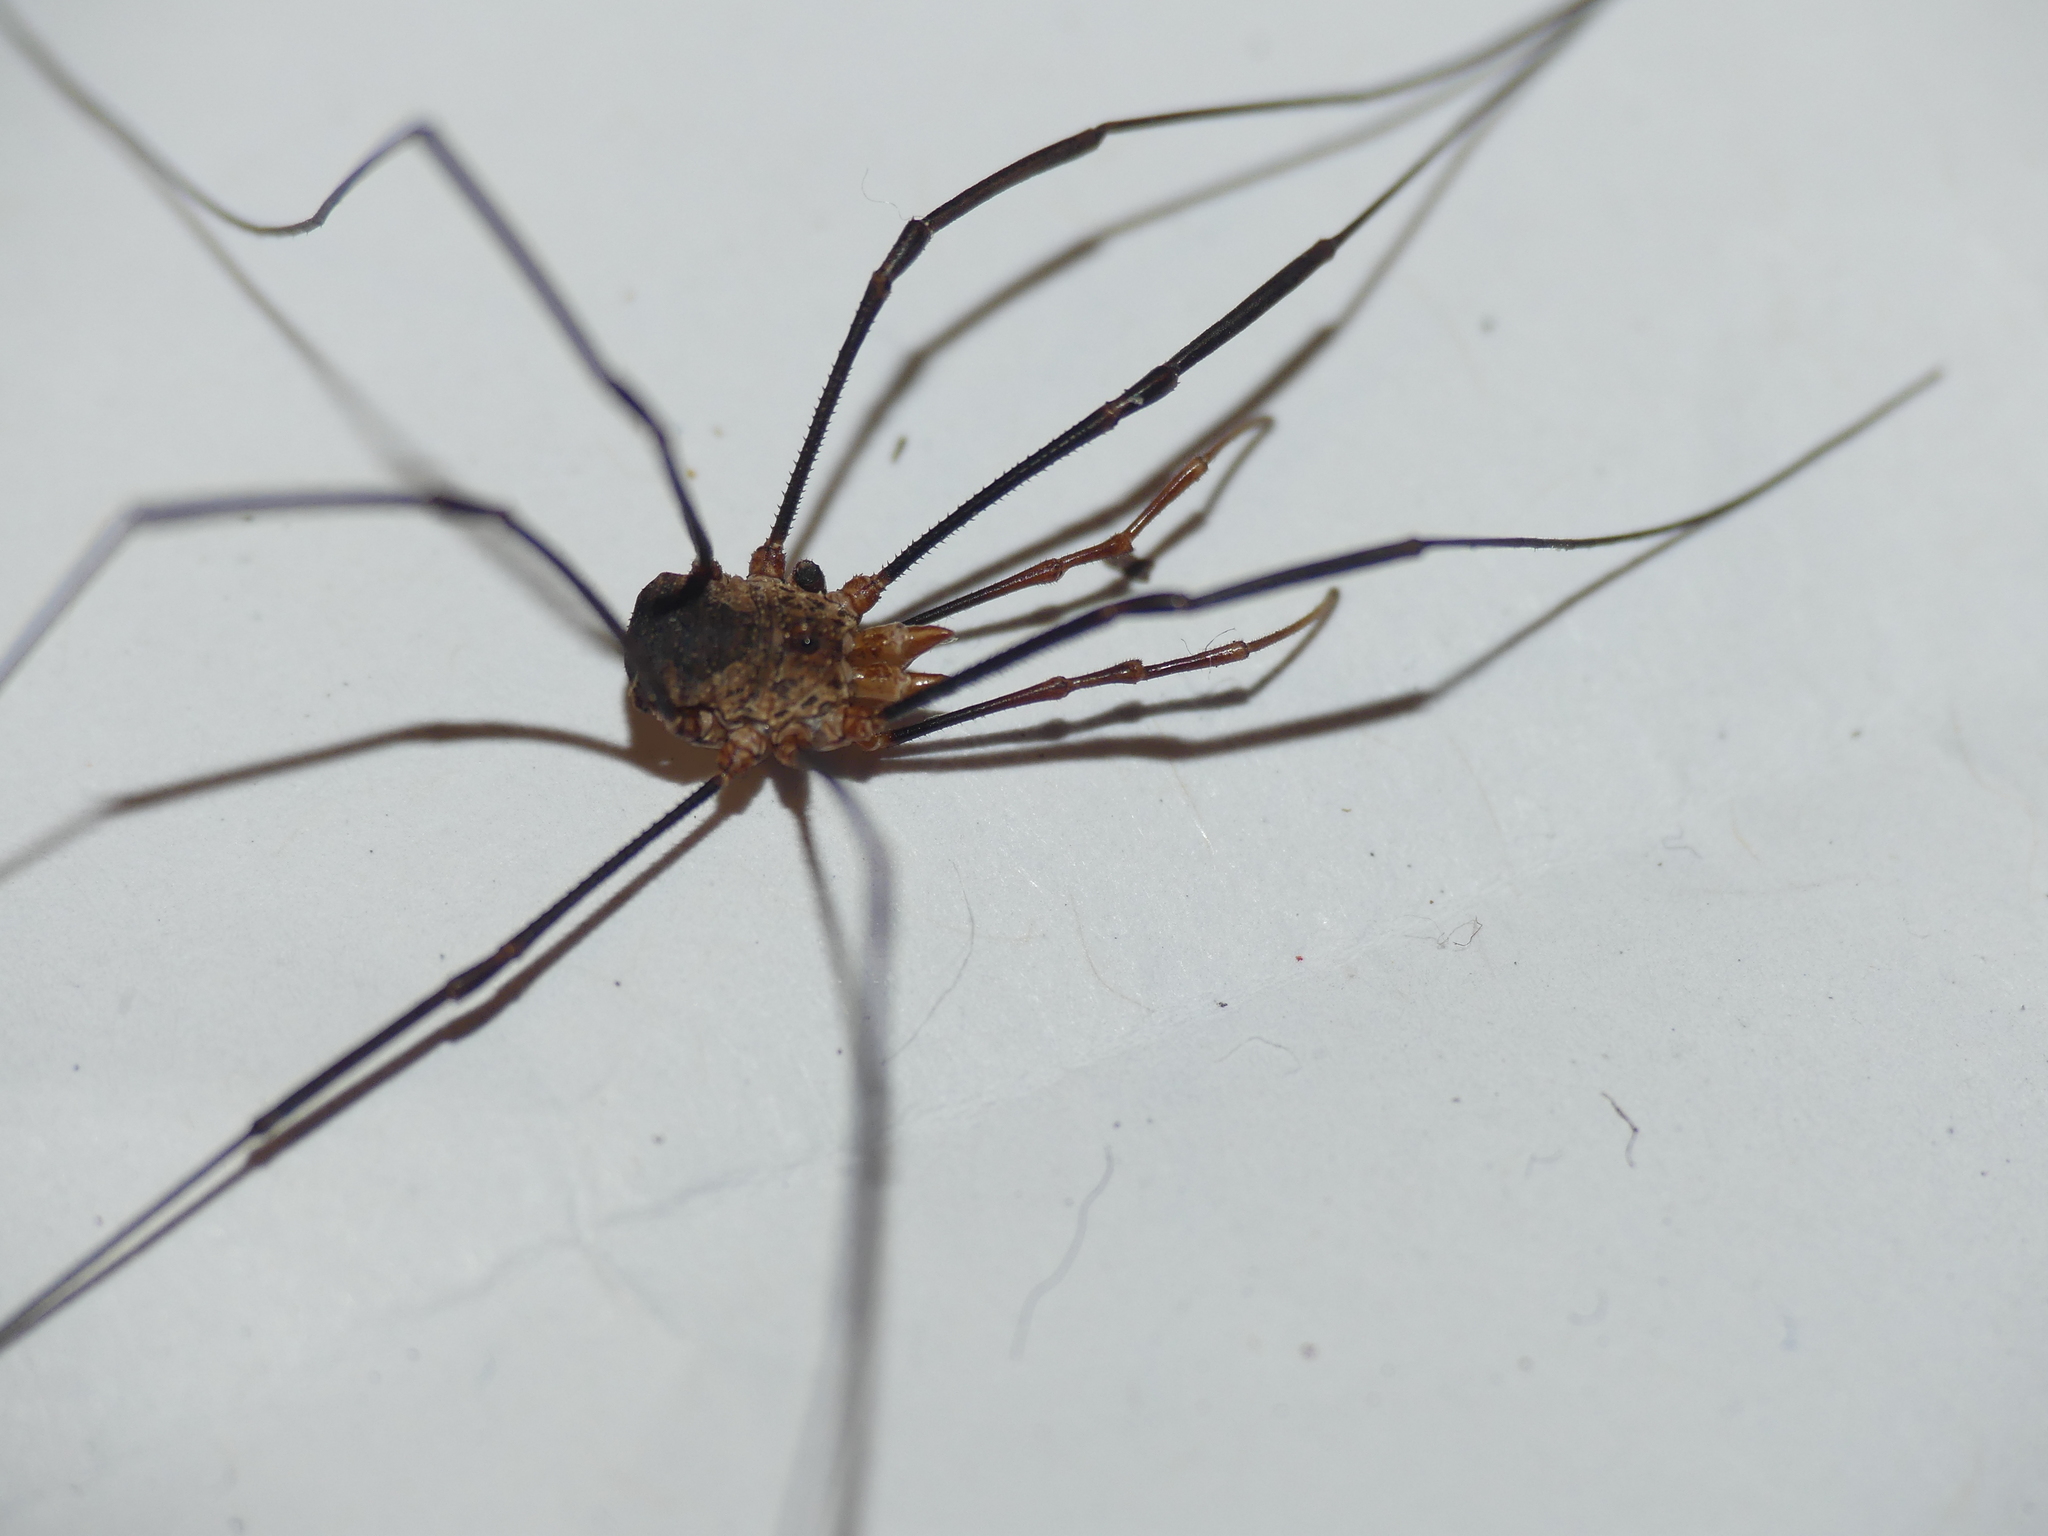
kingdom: Animalia
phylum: Arthropoda
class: Arachnida
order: Opiliones
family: Phalangiidae
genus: Phalangium
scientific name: Phalangium opilio
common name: Daddy longleg
